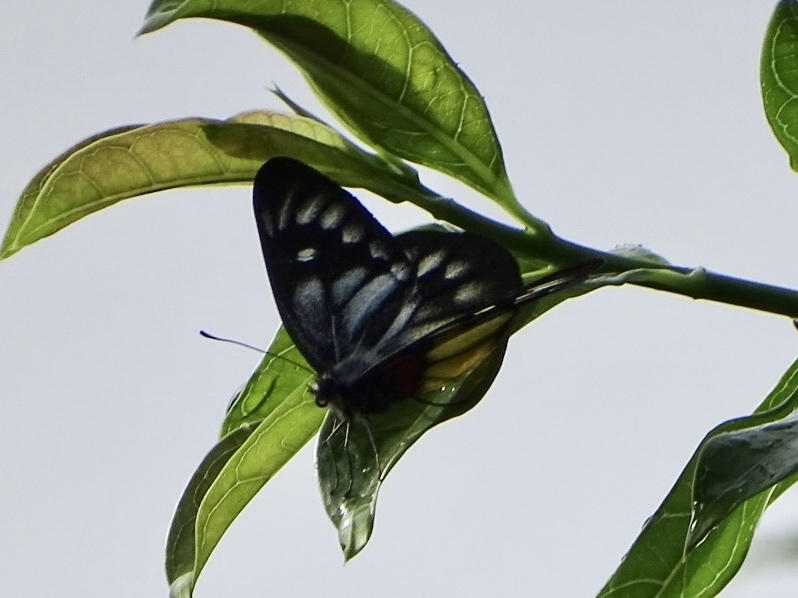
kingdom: Animalia
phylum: Arthropoda
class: Insecta
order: Lepidoptera
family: Pieridae
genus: Delias
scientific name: Delias pasithoe
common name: Red-base jezebel
